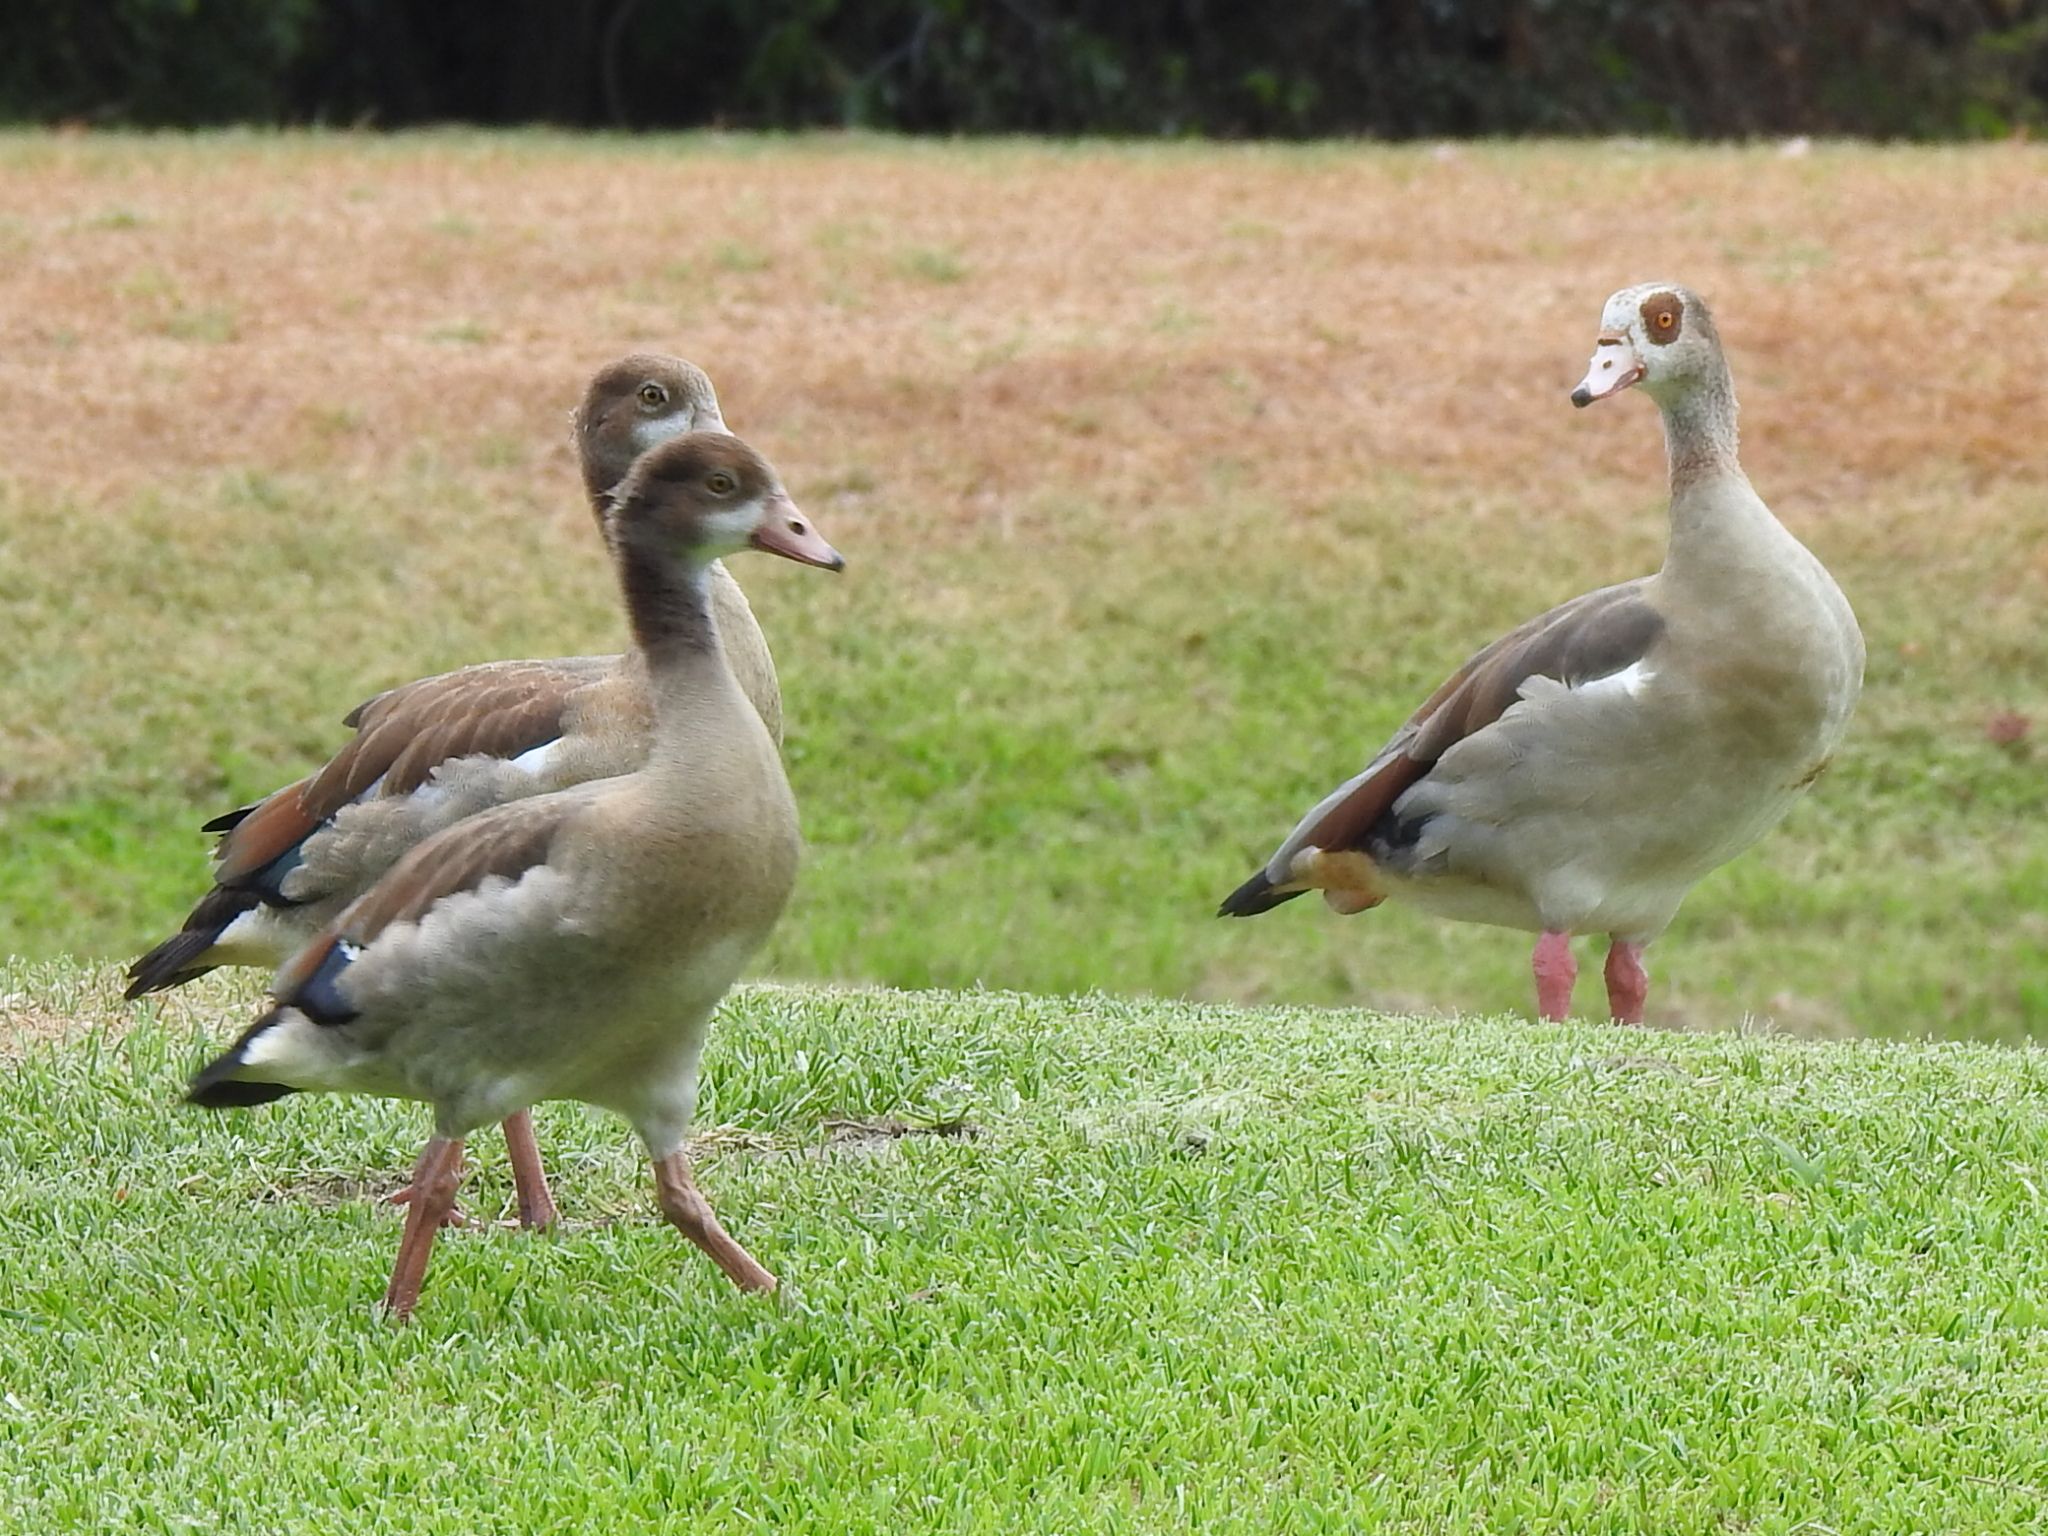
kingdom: Animalia
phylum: Chordata
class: Aves
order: Anseriformes
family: Anatidae
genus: Alopochen
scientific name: Alopochen aegyptiaca
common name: Egyptian goose
